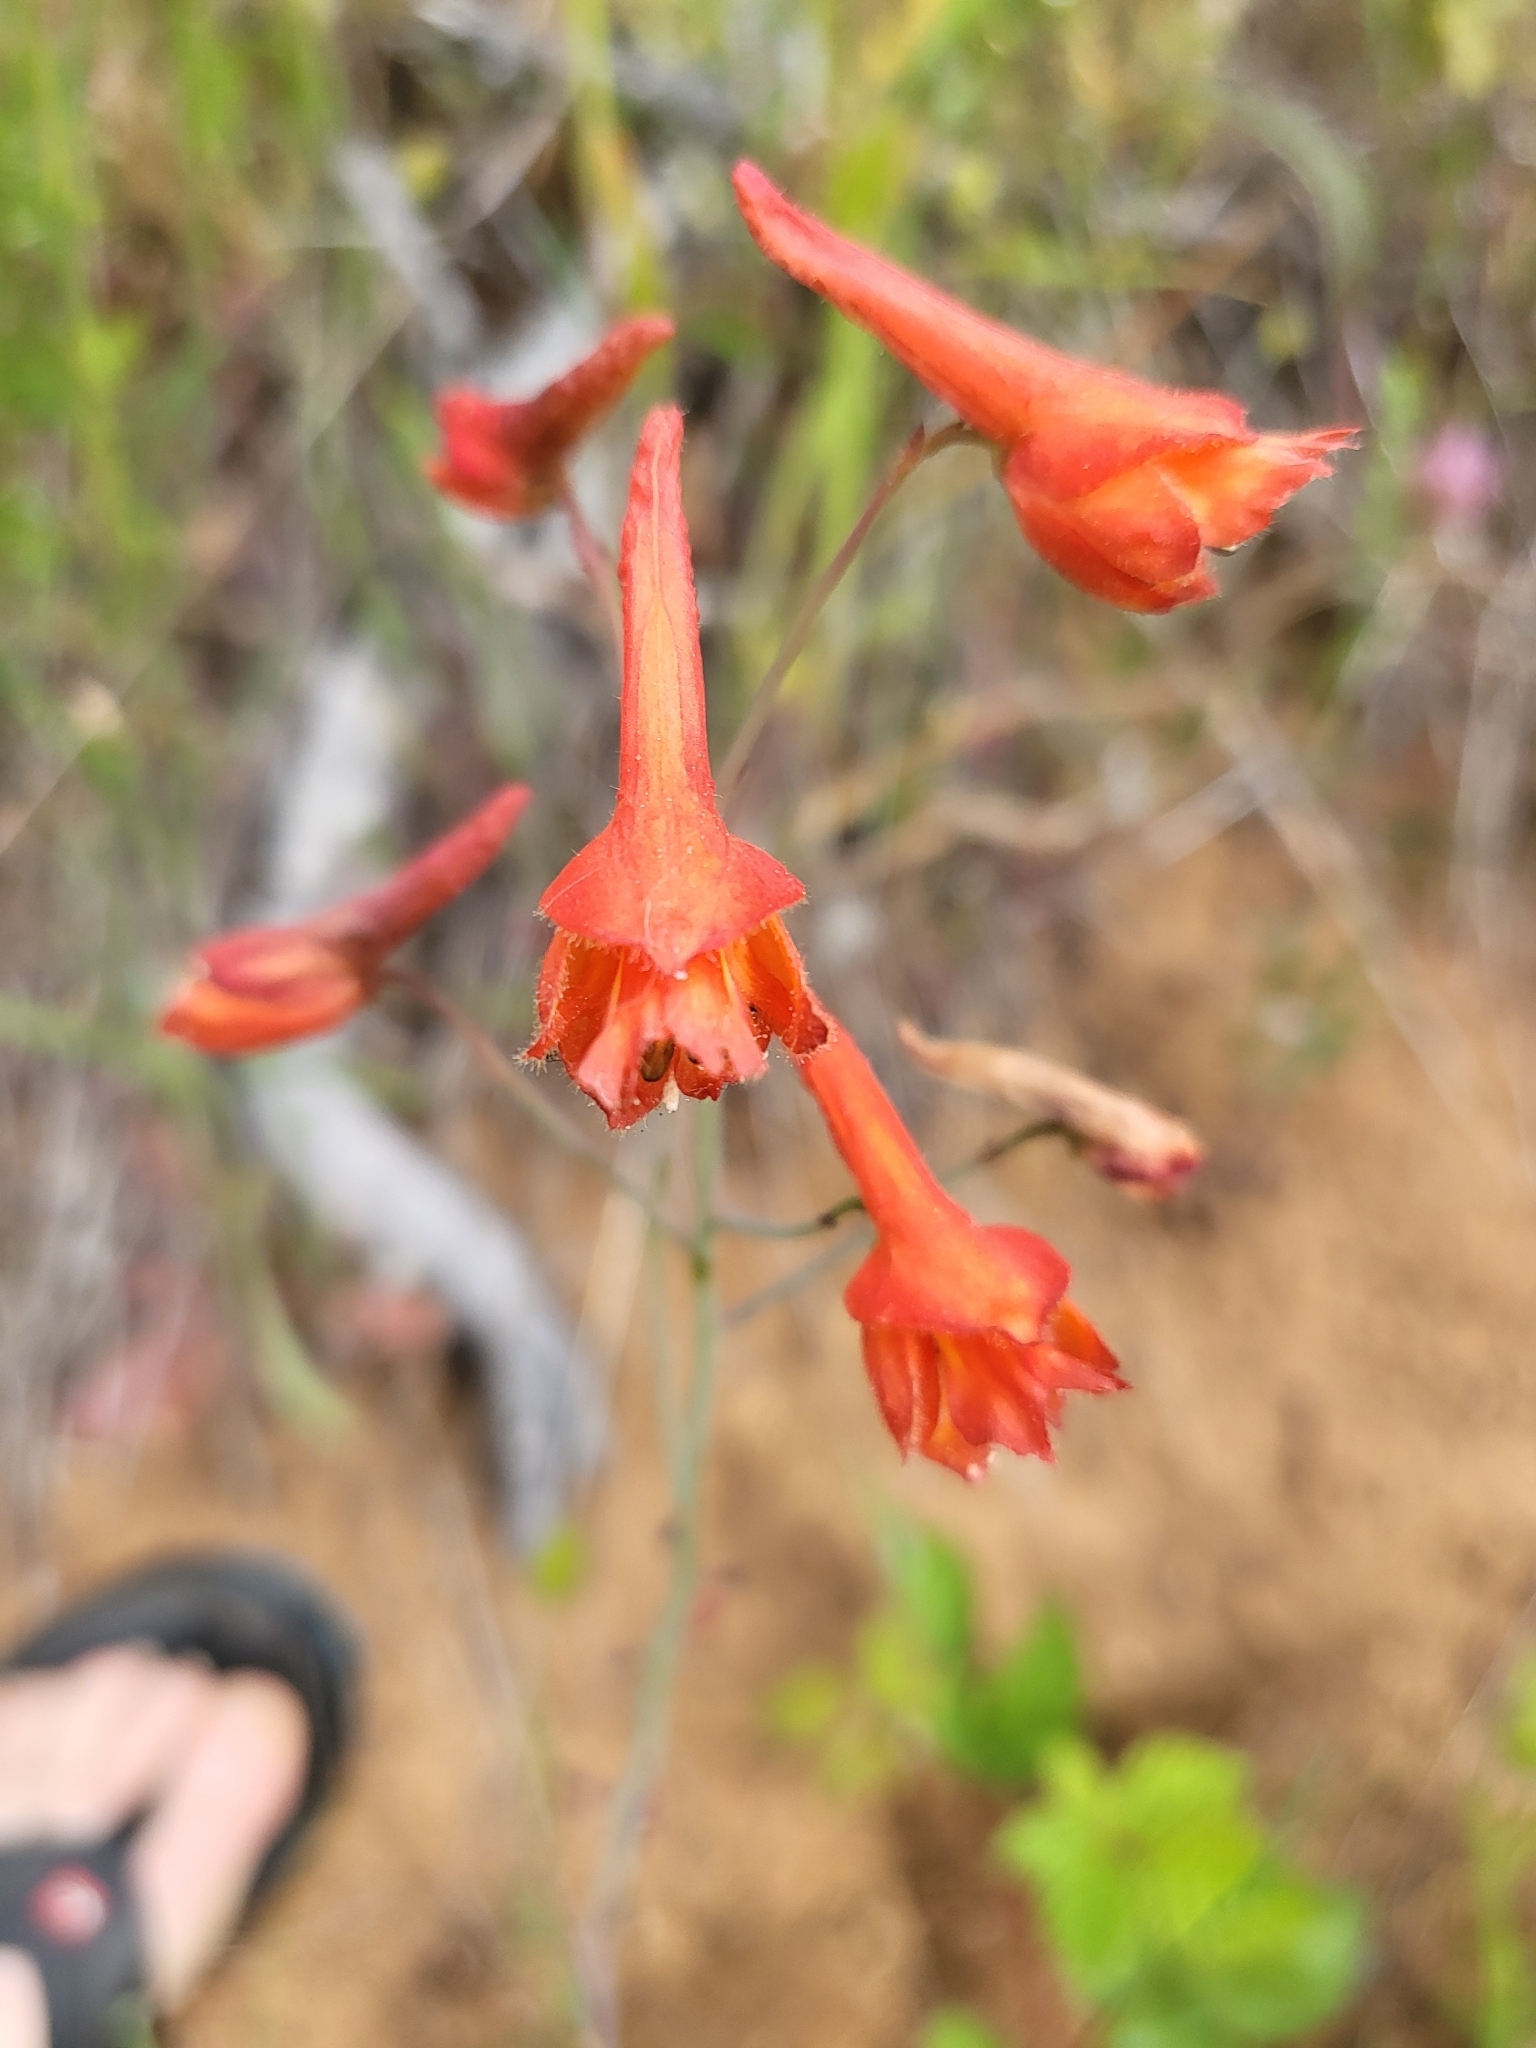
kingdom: Plantae
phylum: Tracheophyta
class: Magnoliopsida
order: Ranunculales
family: Ranunculaceae
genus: Delphinium
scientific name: Delphinium nudicaule
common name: Red larkspur
